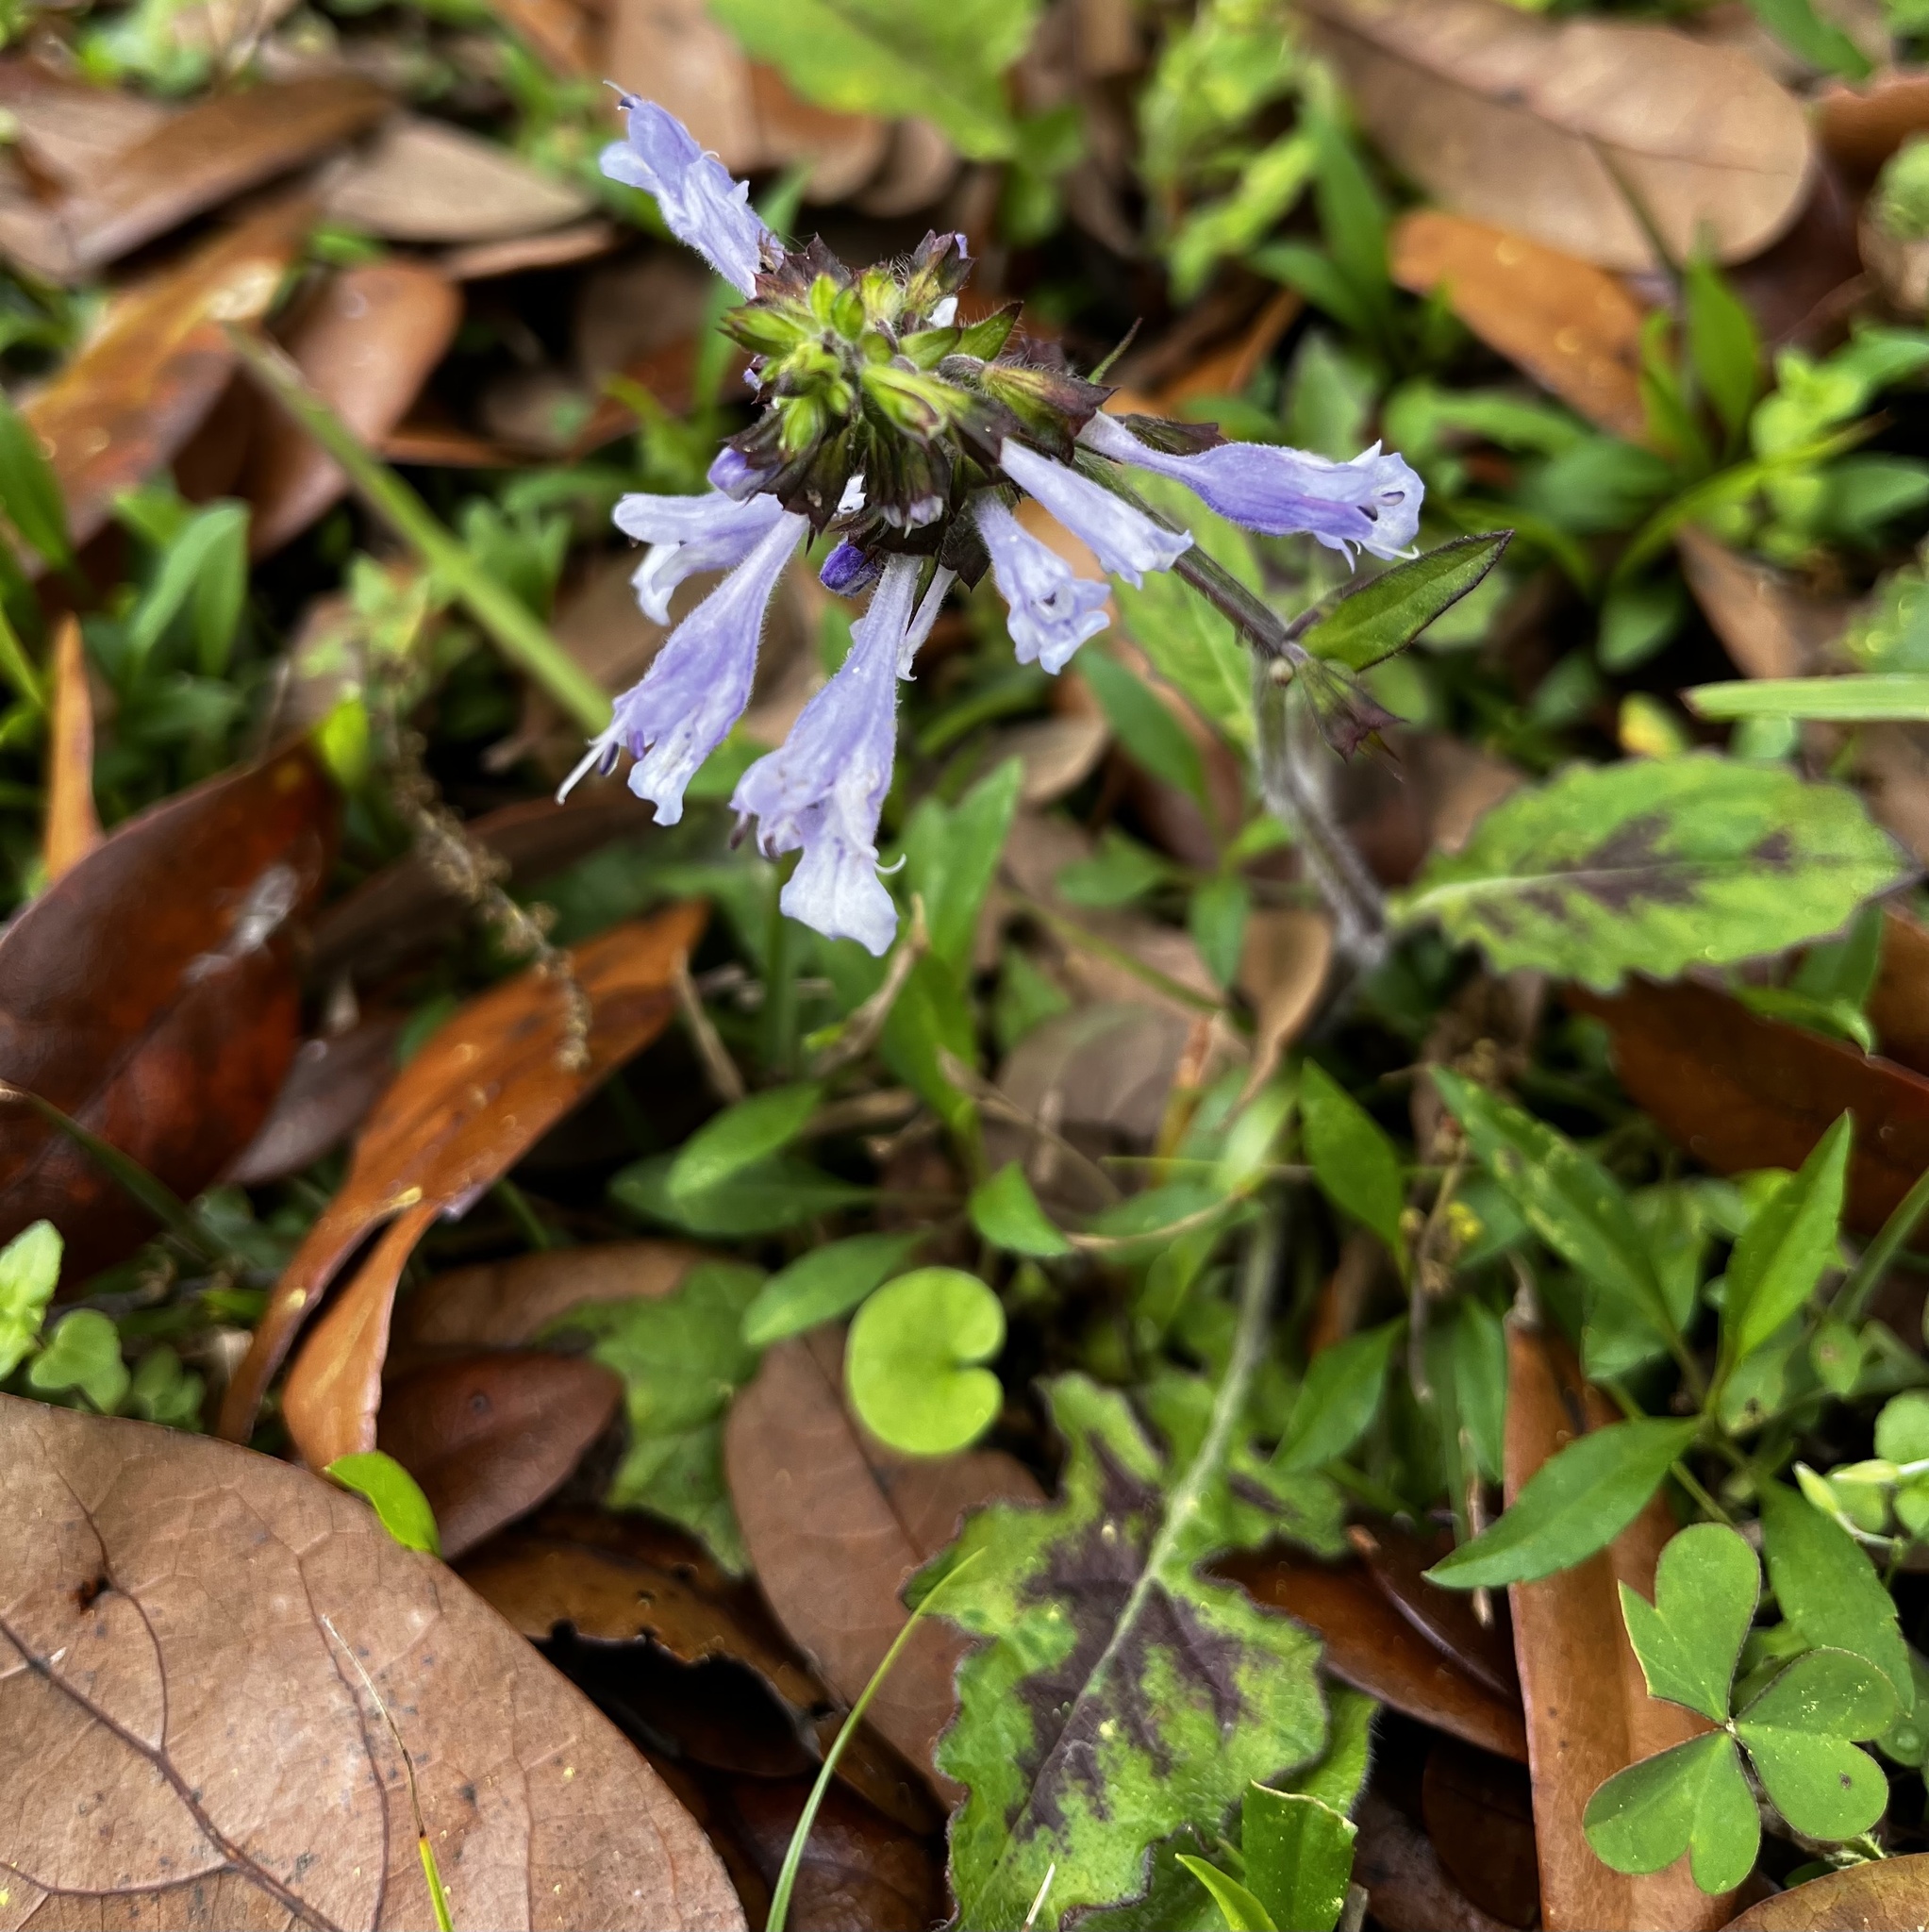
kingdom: Plantae
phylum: Tracheophyta
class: Magnoliopsida
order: Lamiales
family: Lamiaceae
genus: Salvia
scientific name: Salvia lyrata
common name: Cancerweed
